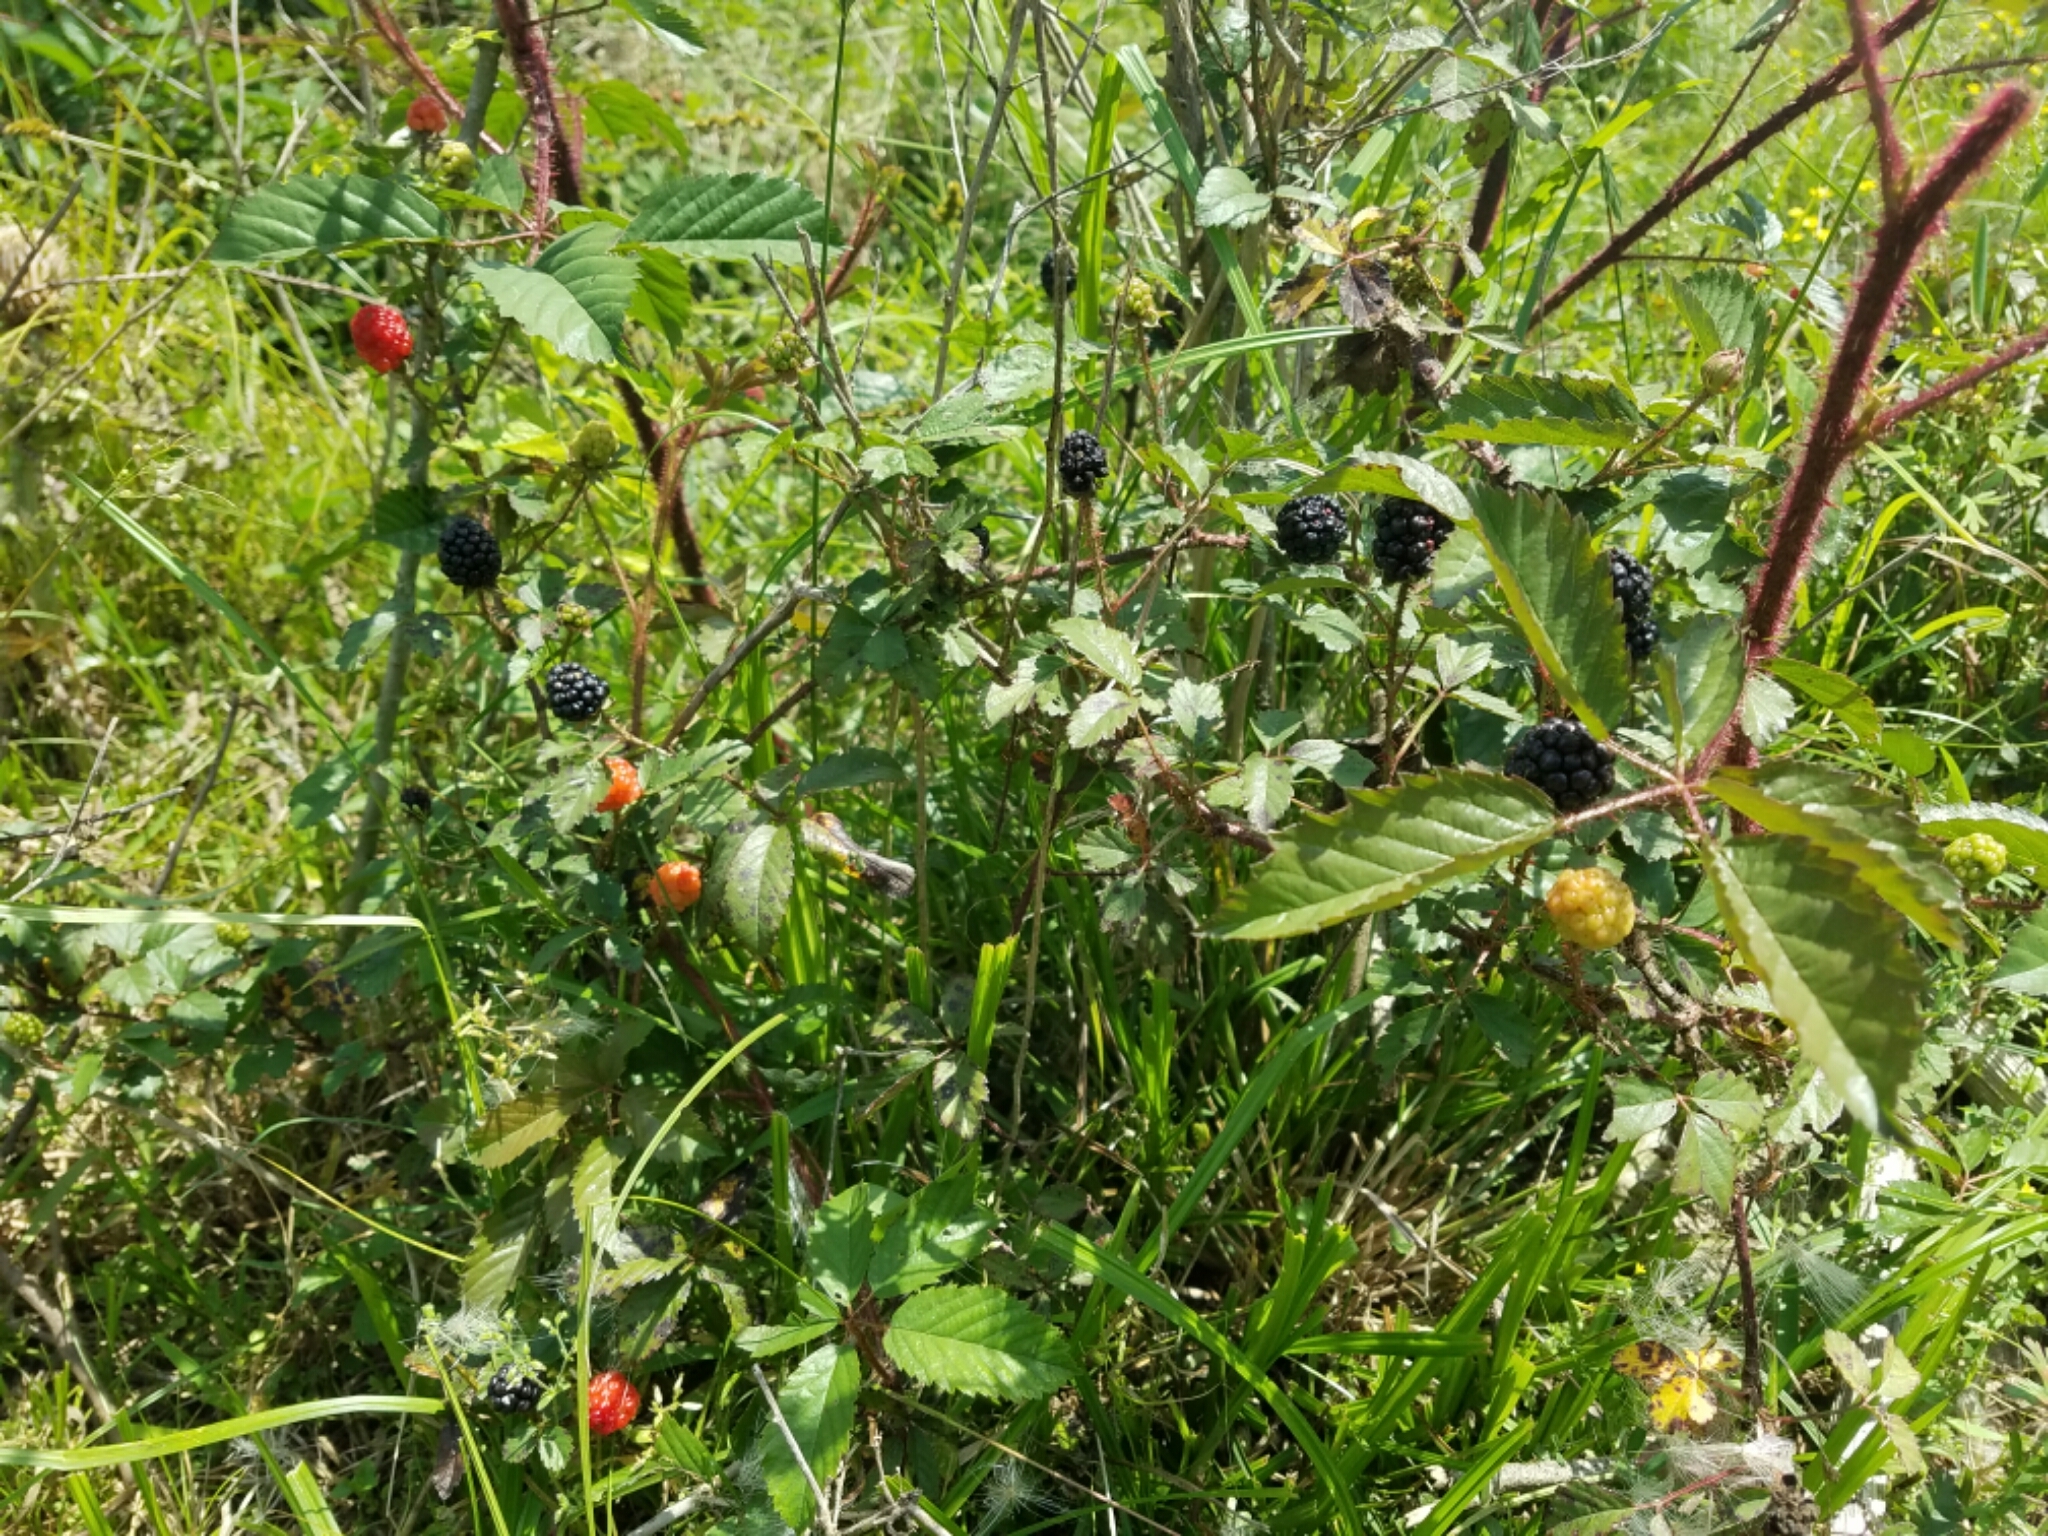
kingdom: Plantae
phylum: Tracheophyta
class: Magnoliopsida
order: Rosales
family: Rosaceae
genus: Rubus
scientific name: Rubus trivialis
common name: Southern dewberry
